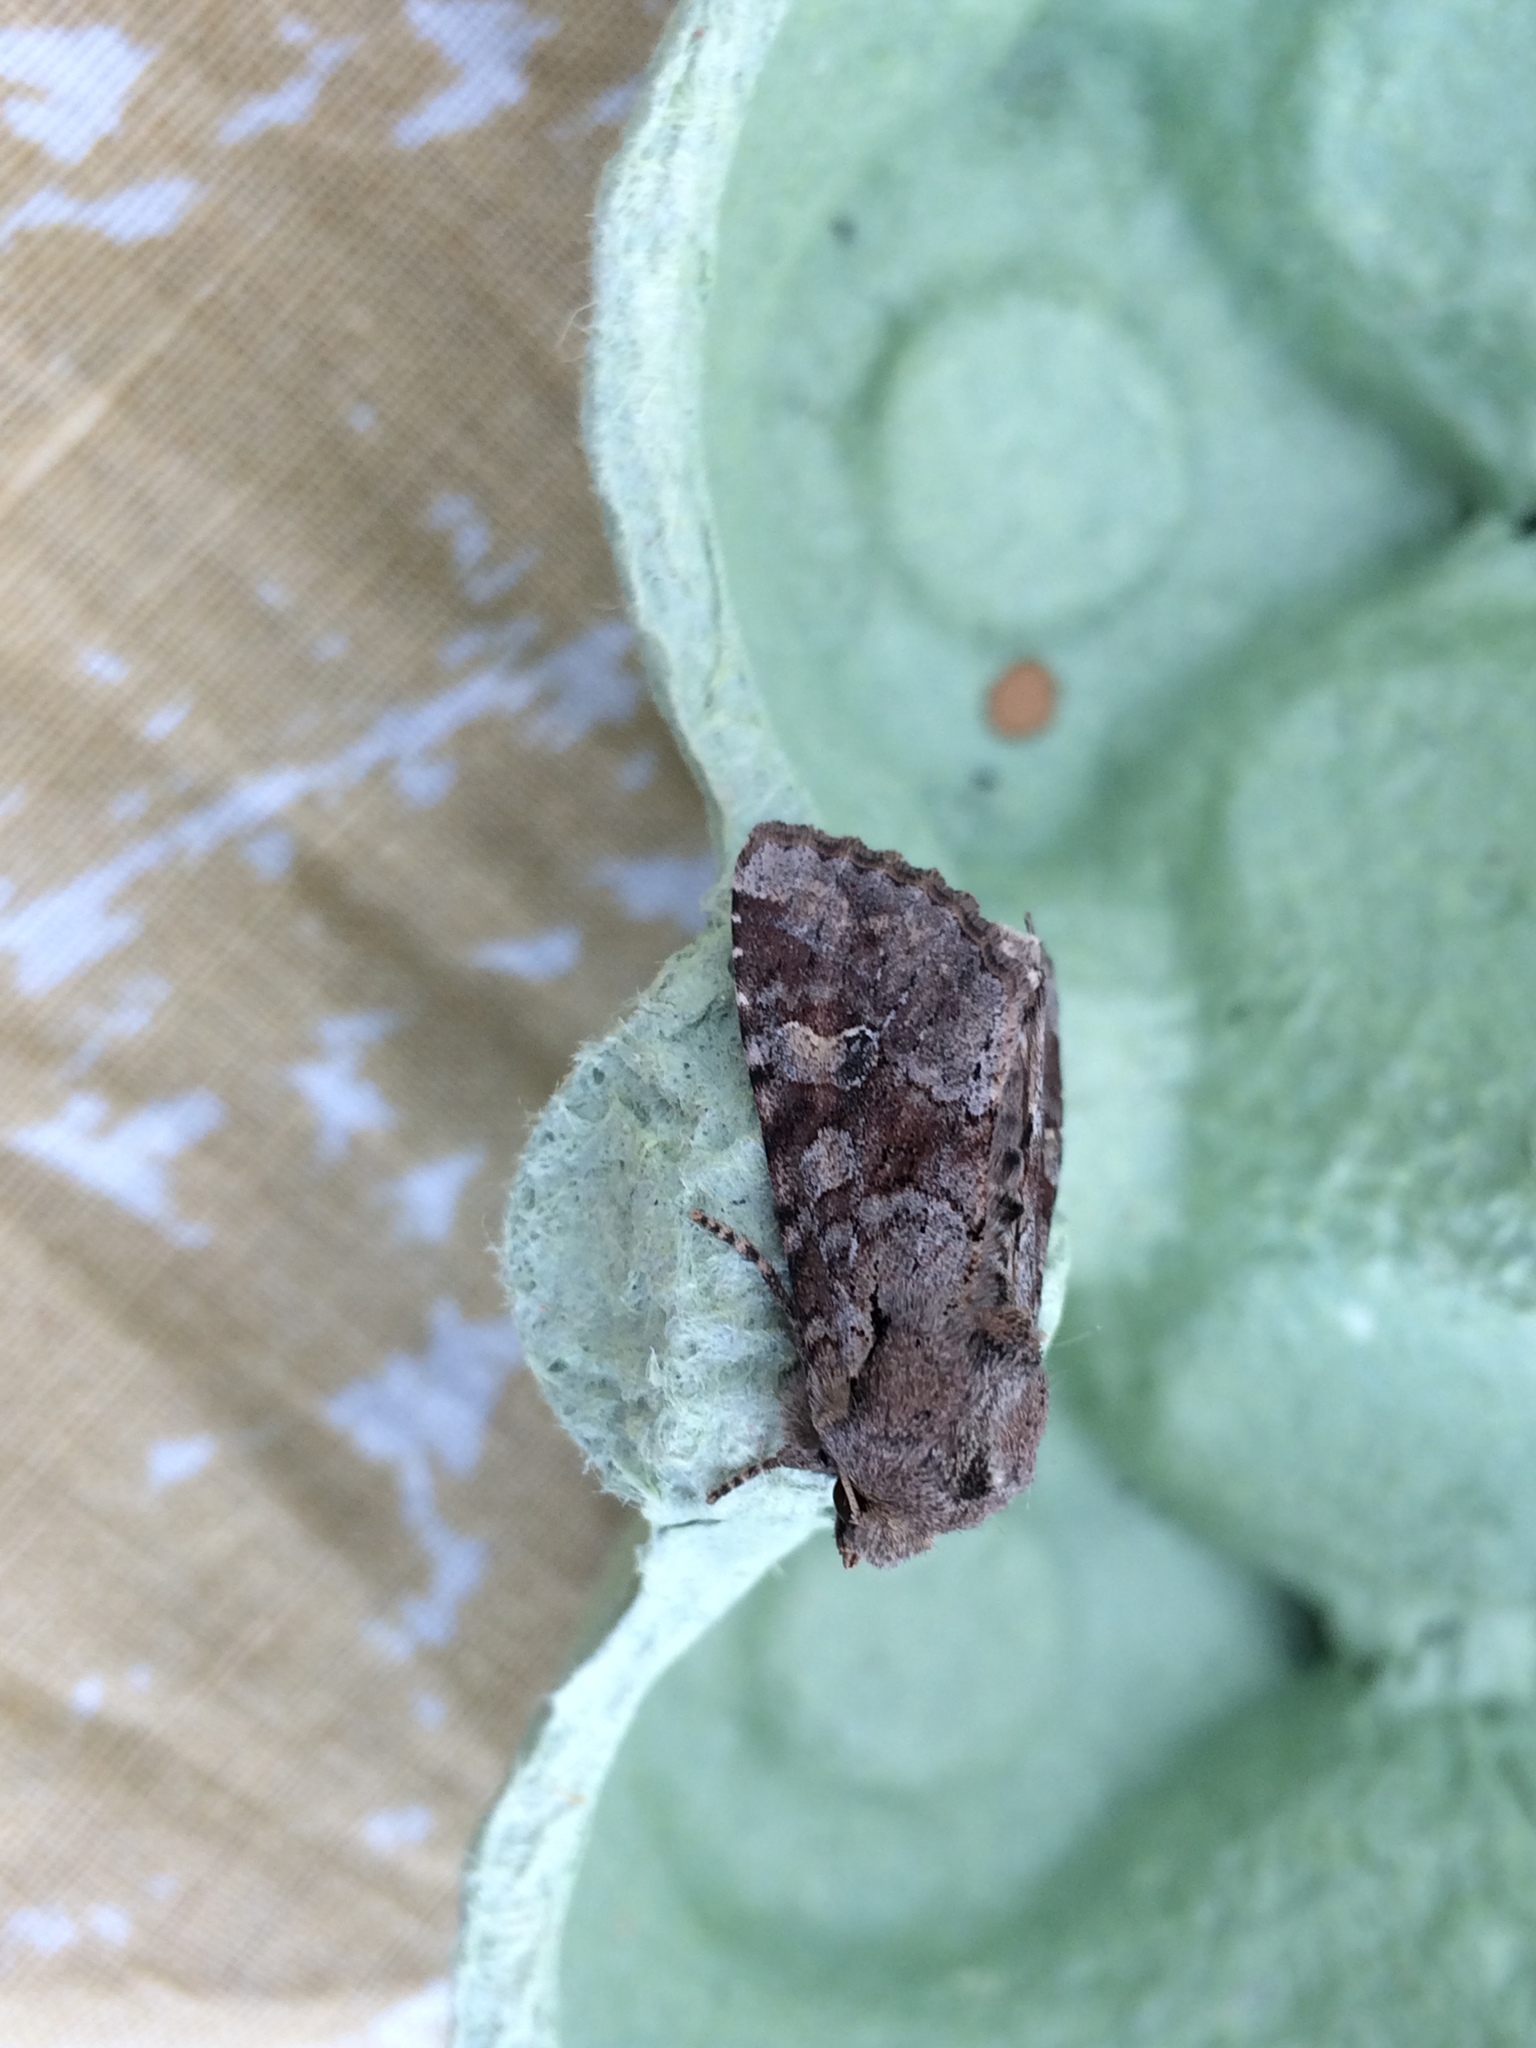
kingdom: Animalia
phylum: Arthropoda
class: Insecta
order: Lepidoptera
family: Noctuidae
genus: Apamea
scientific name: Apamea sordens
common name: Rustic shoulder-knot
